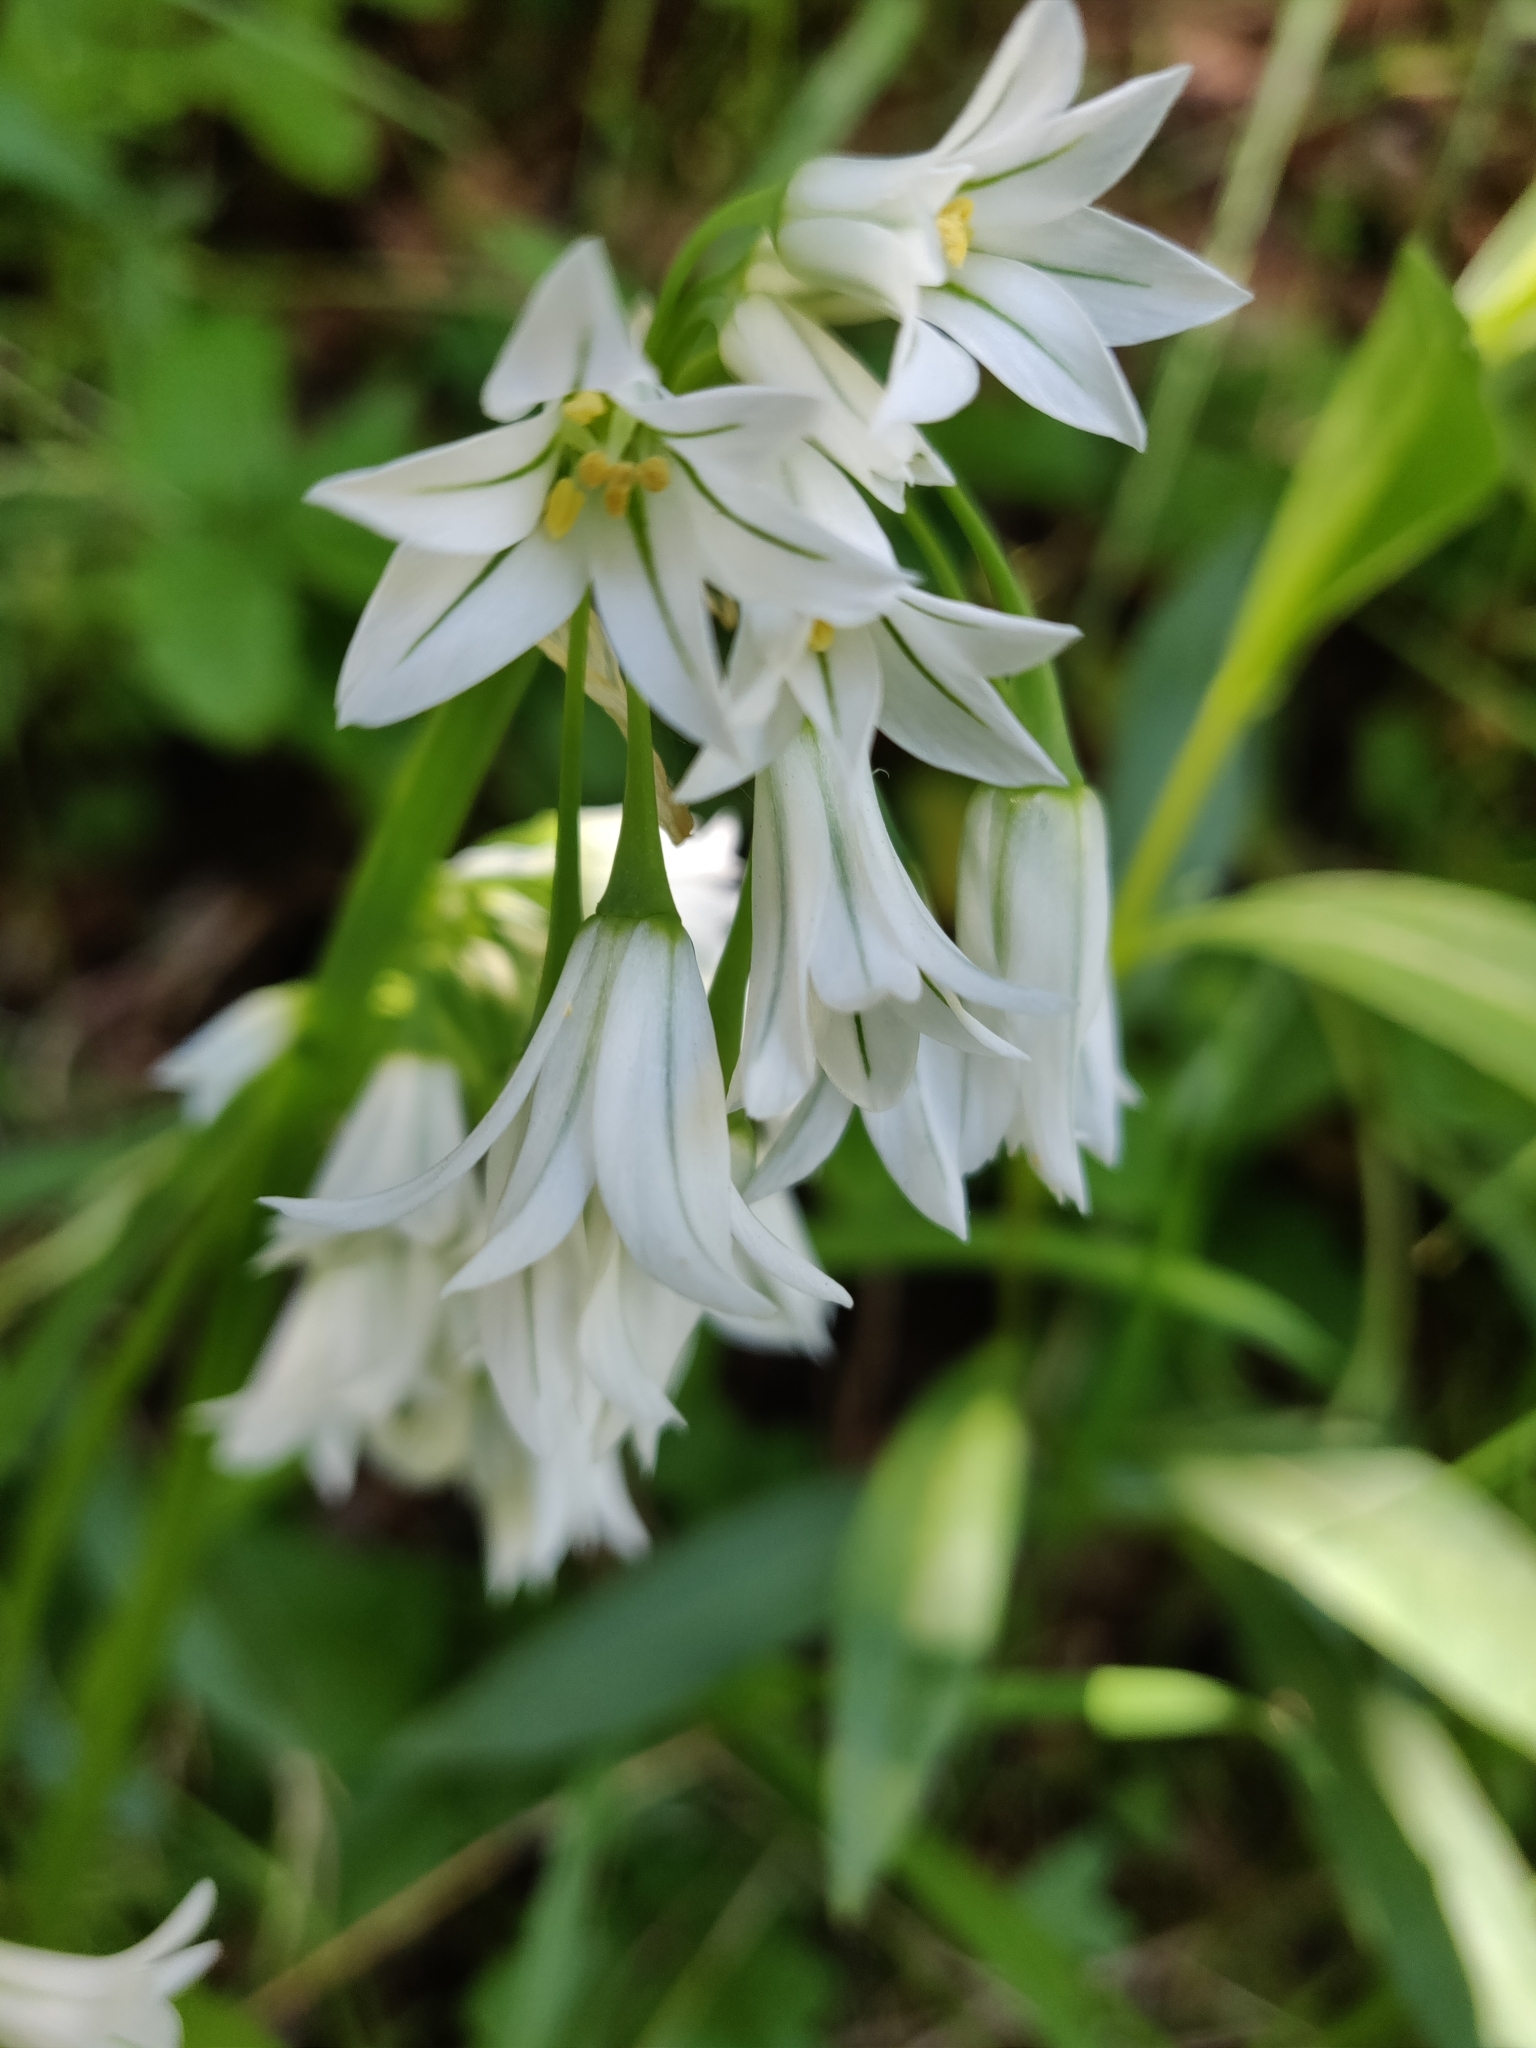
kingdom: Plantae
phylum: Tracheophyta
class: Liliopsida
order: Asparagales
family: Amaryllidaceae
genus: Allium
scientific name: Allium triquetrum
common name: Three-cornered garlic
